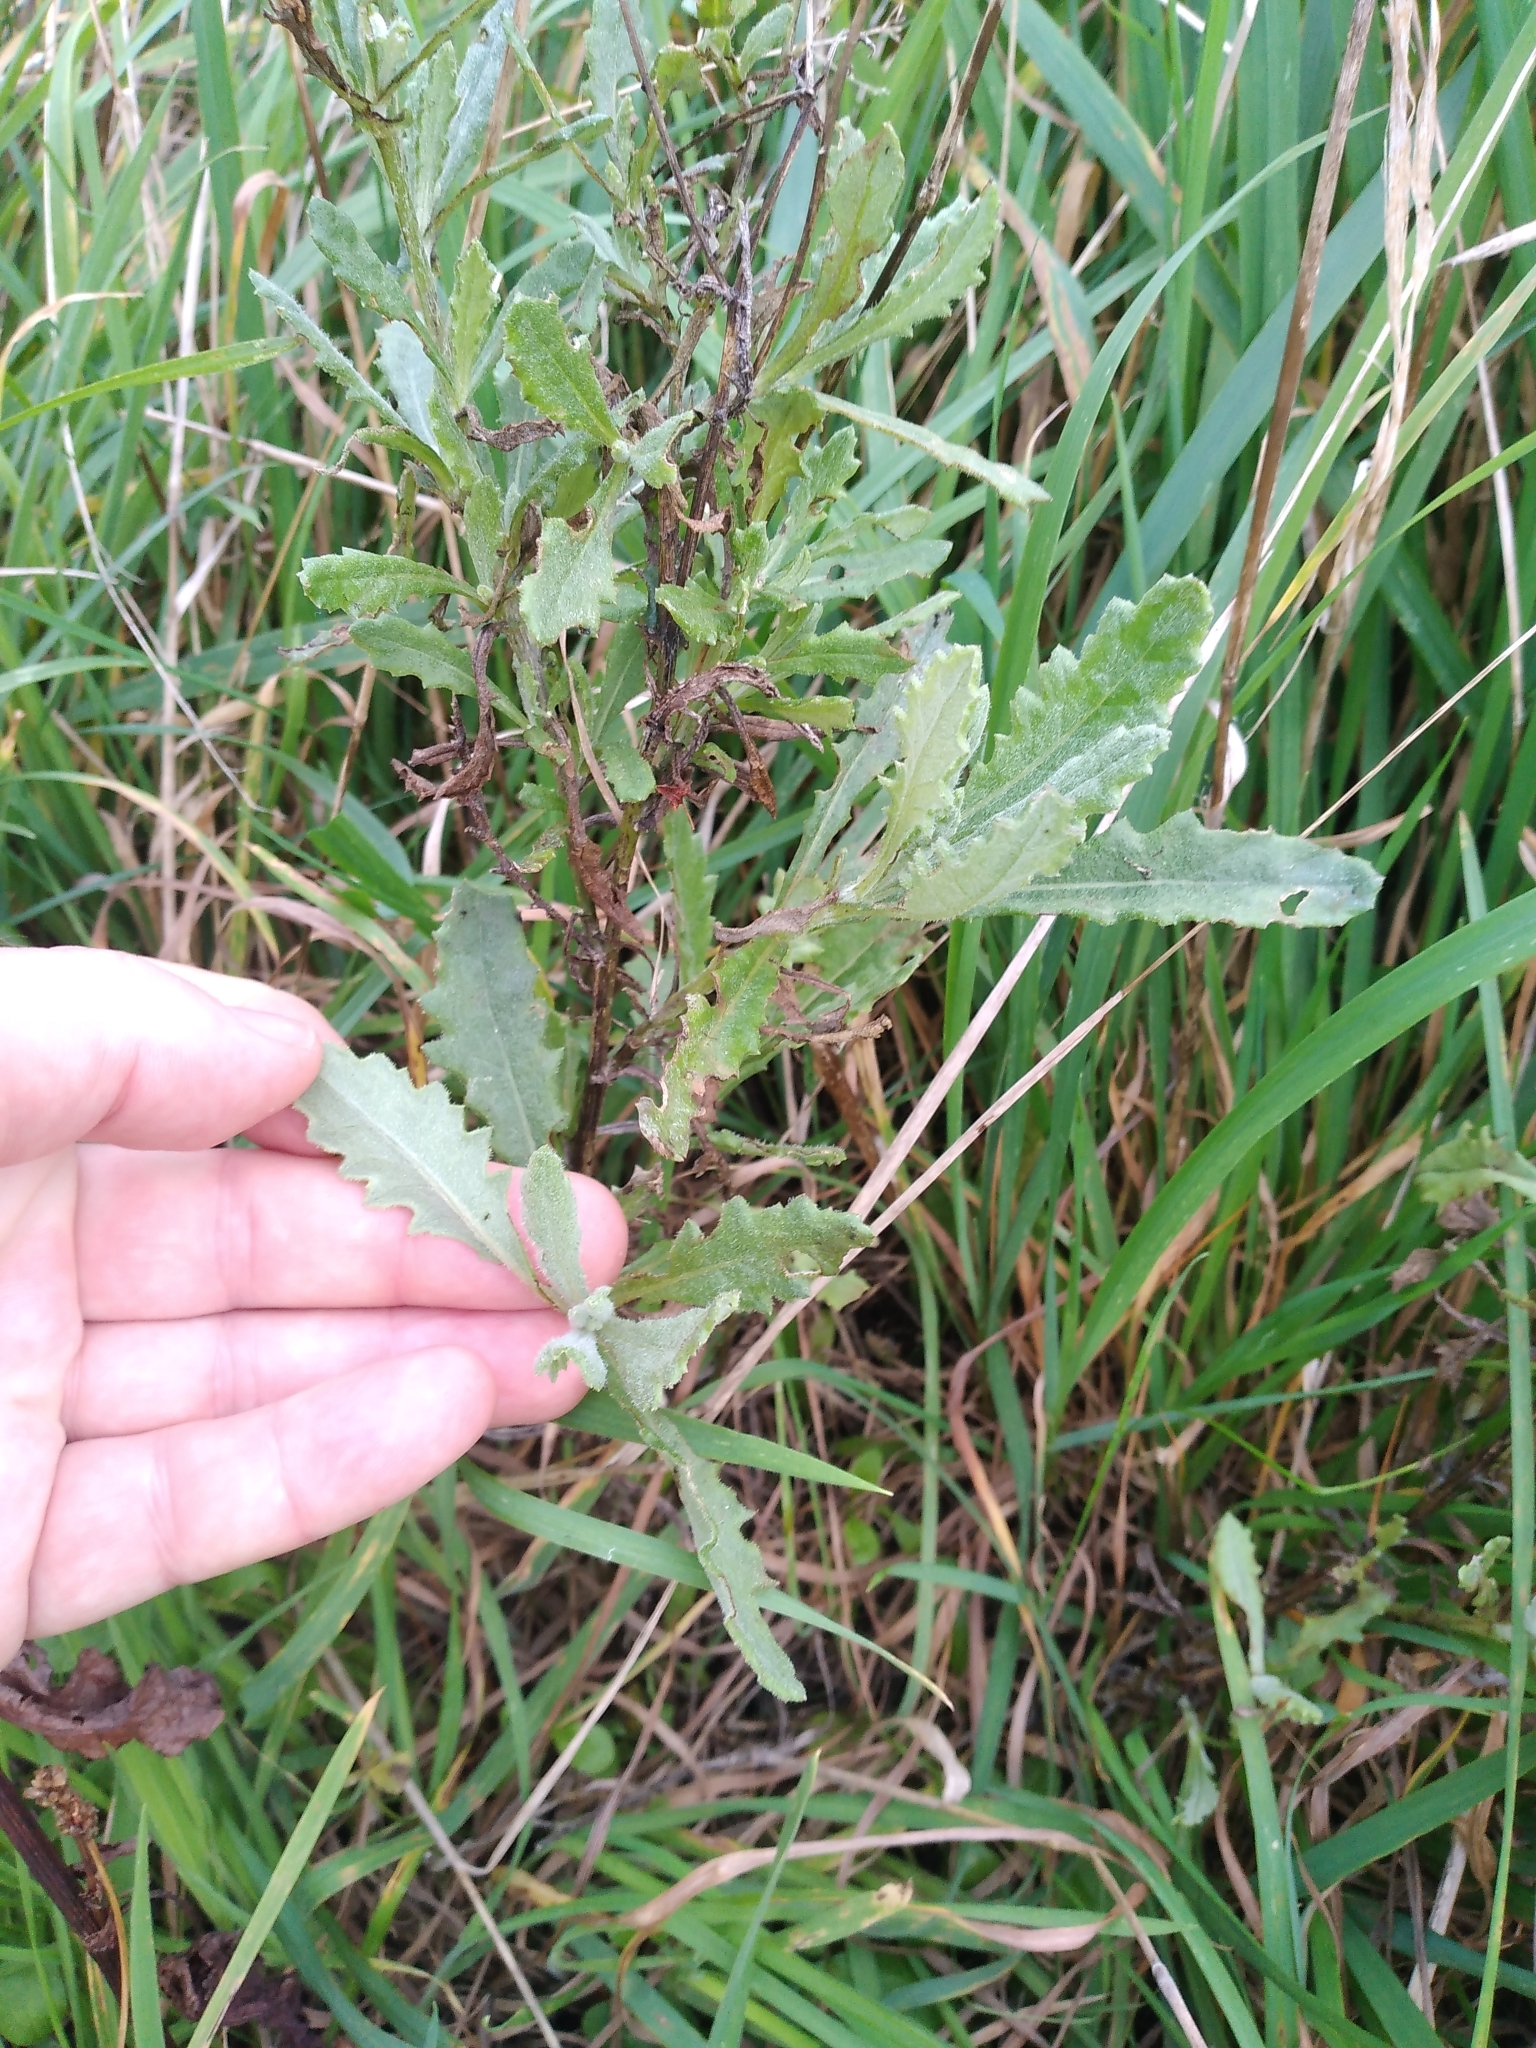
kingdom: Plantae
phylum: Tracheophyta
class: Magnoliopsida
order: Asterales
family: Asteraceae
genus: Senecio
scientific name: Senecio glomeratus
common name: Cutleaf burnweed
